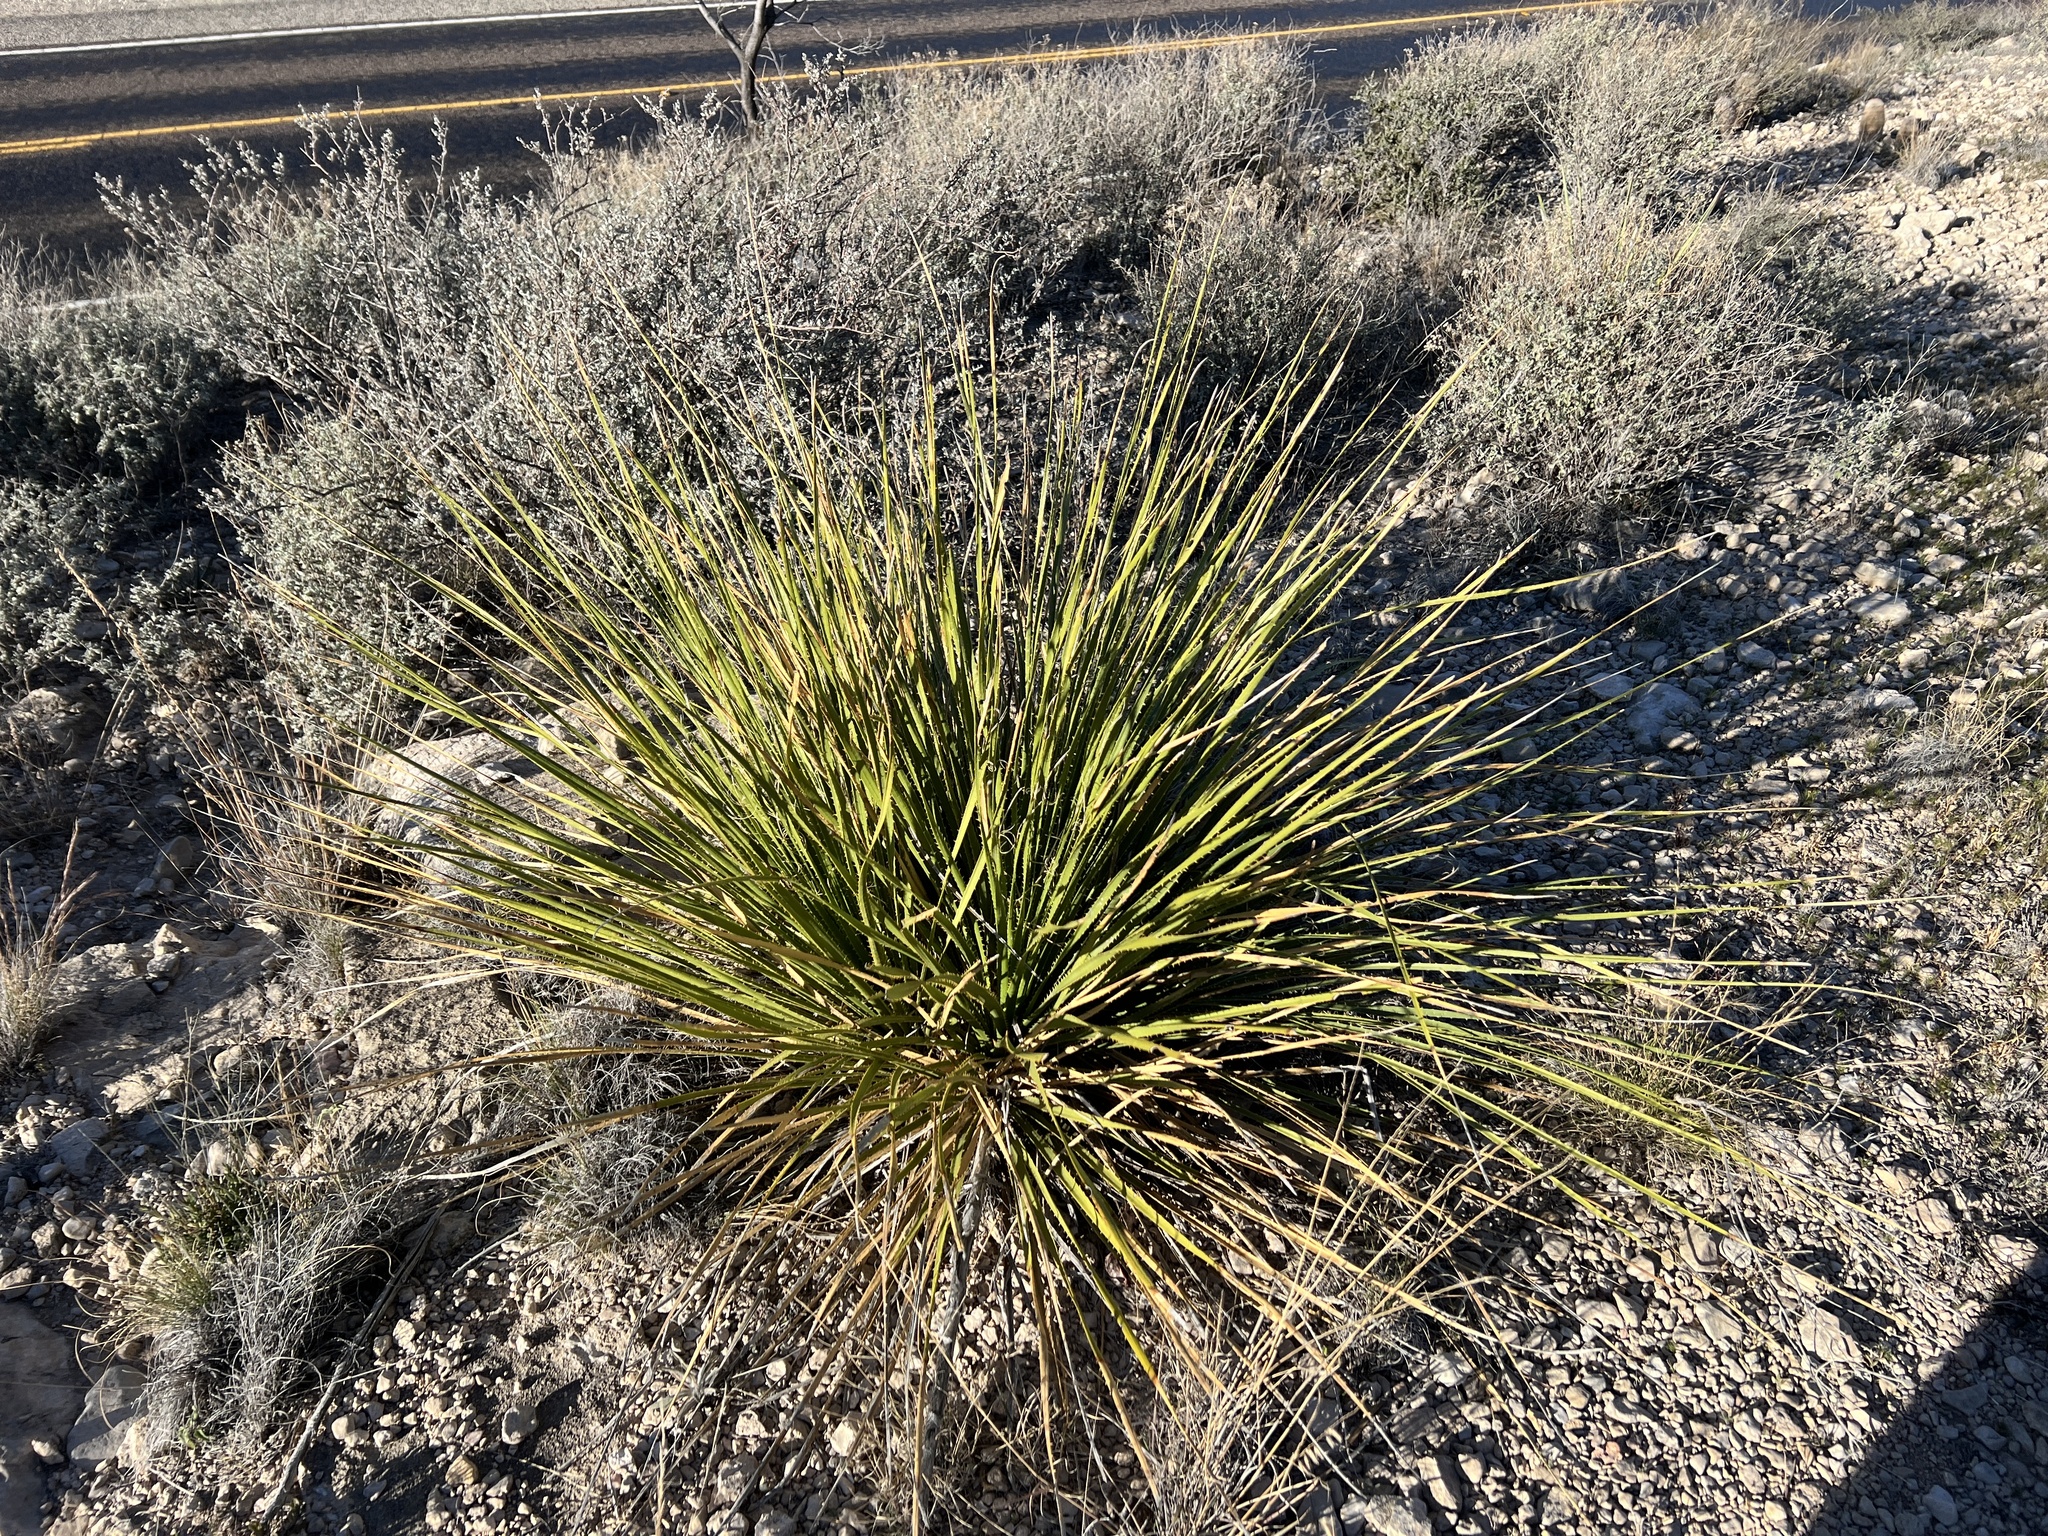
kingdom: Plantae
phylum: Tracheophyta
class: Liliopsida
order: Asparagales
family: Asparagaceae
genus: Dasylirion
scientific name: Dasylirion texanum
